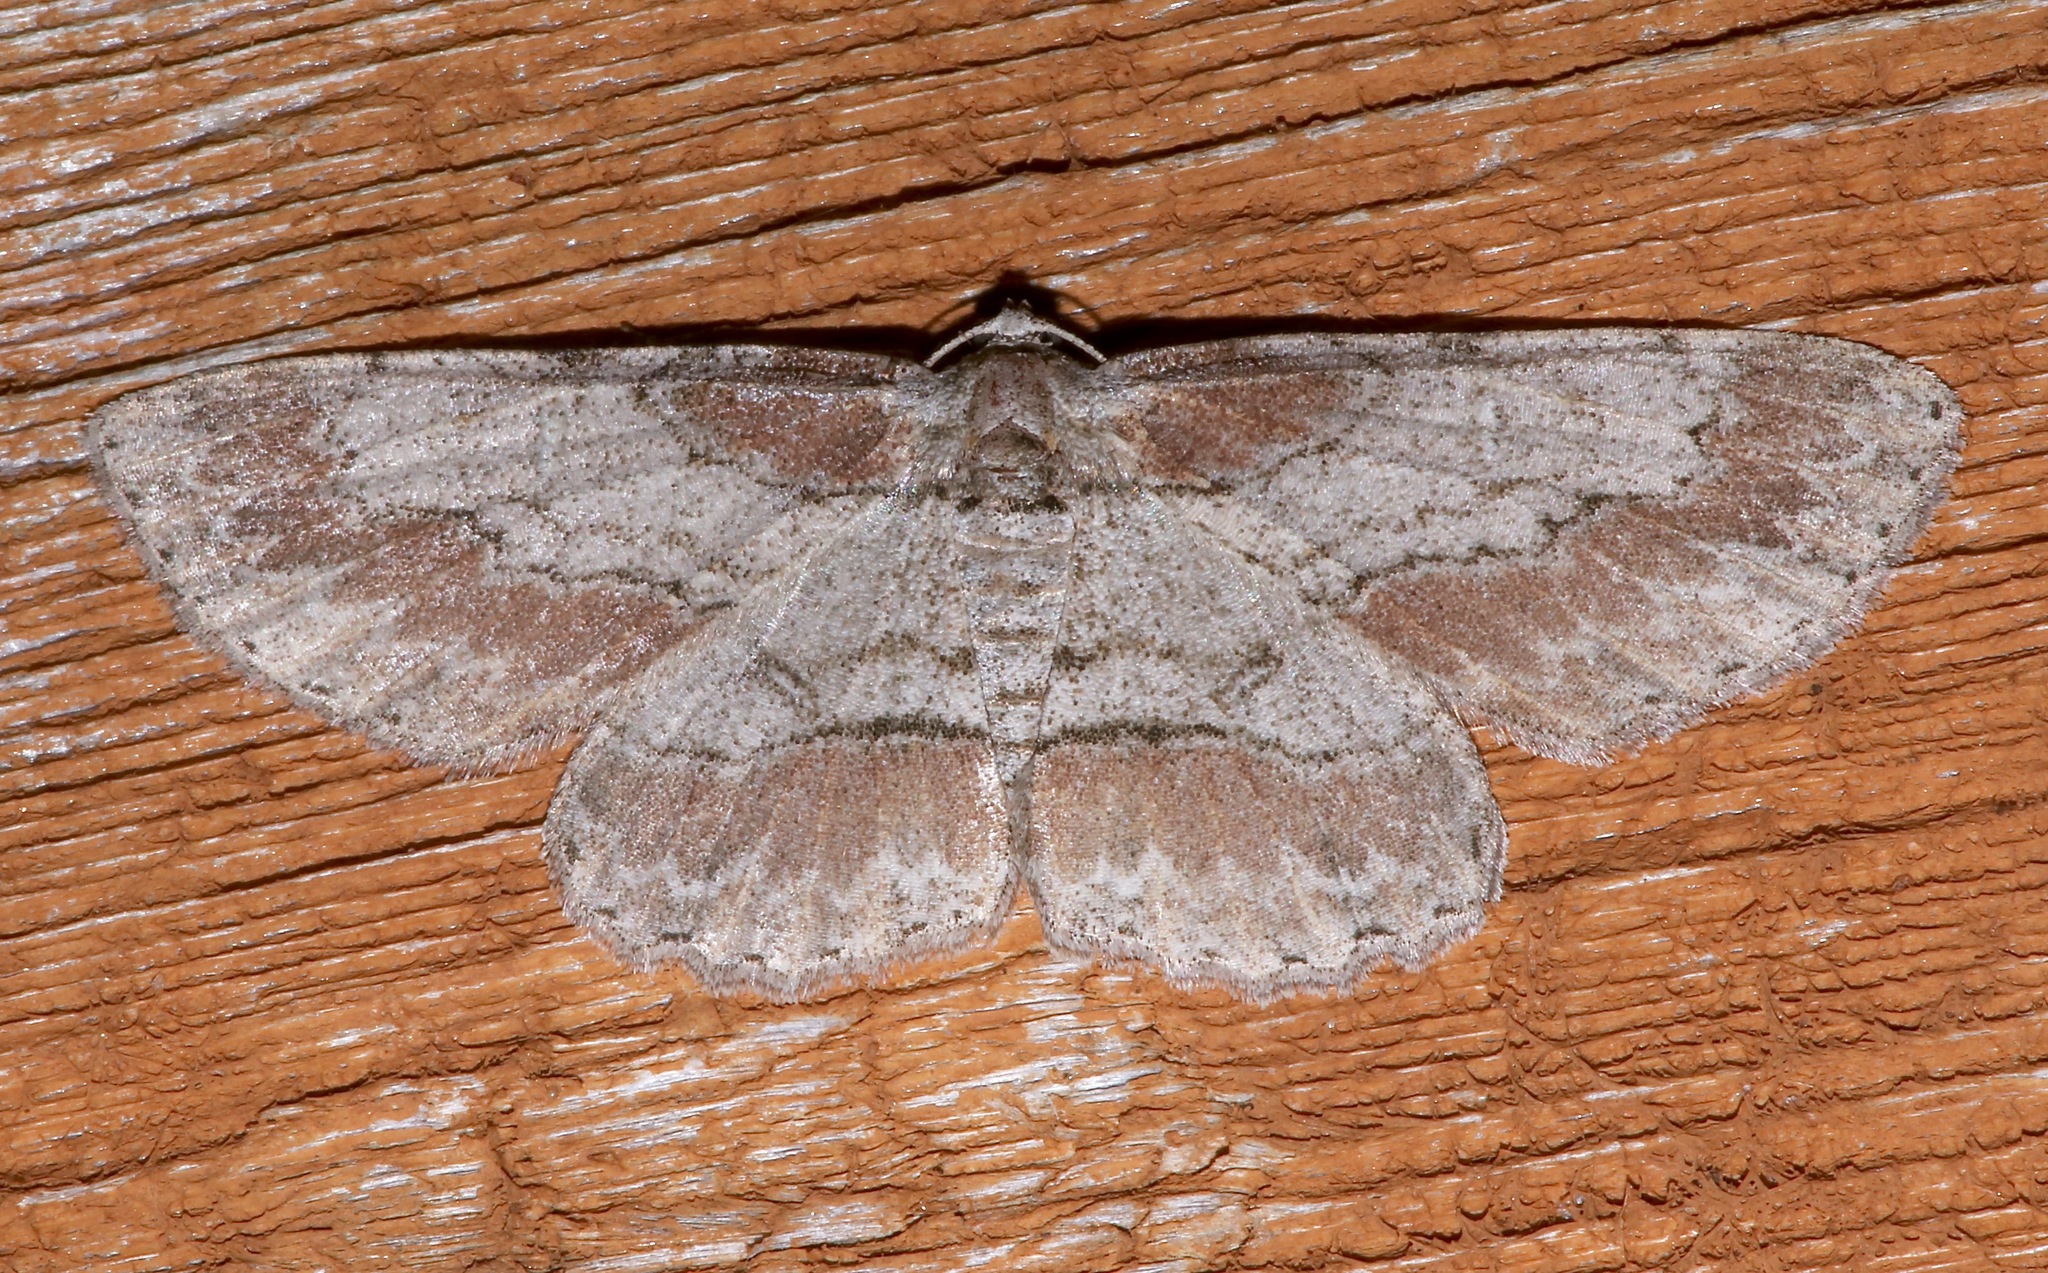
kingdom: Animalia
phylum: Arthropoda
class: Insecta
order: Lepidoptera
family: Geometridae
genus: Iridopsis
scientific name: Iridopsis pergracilis
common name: Cypress looper
